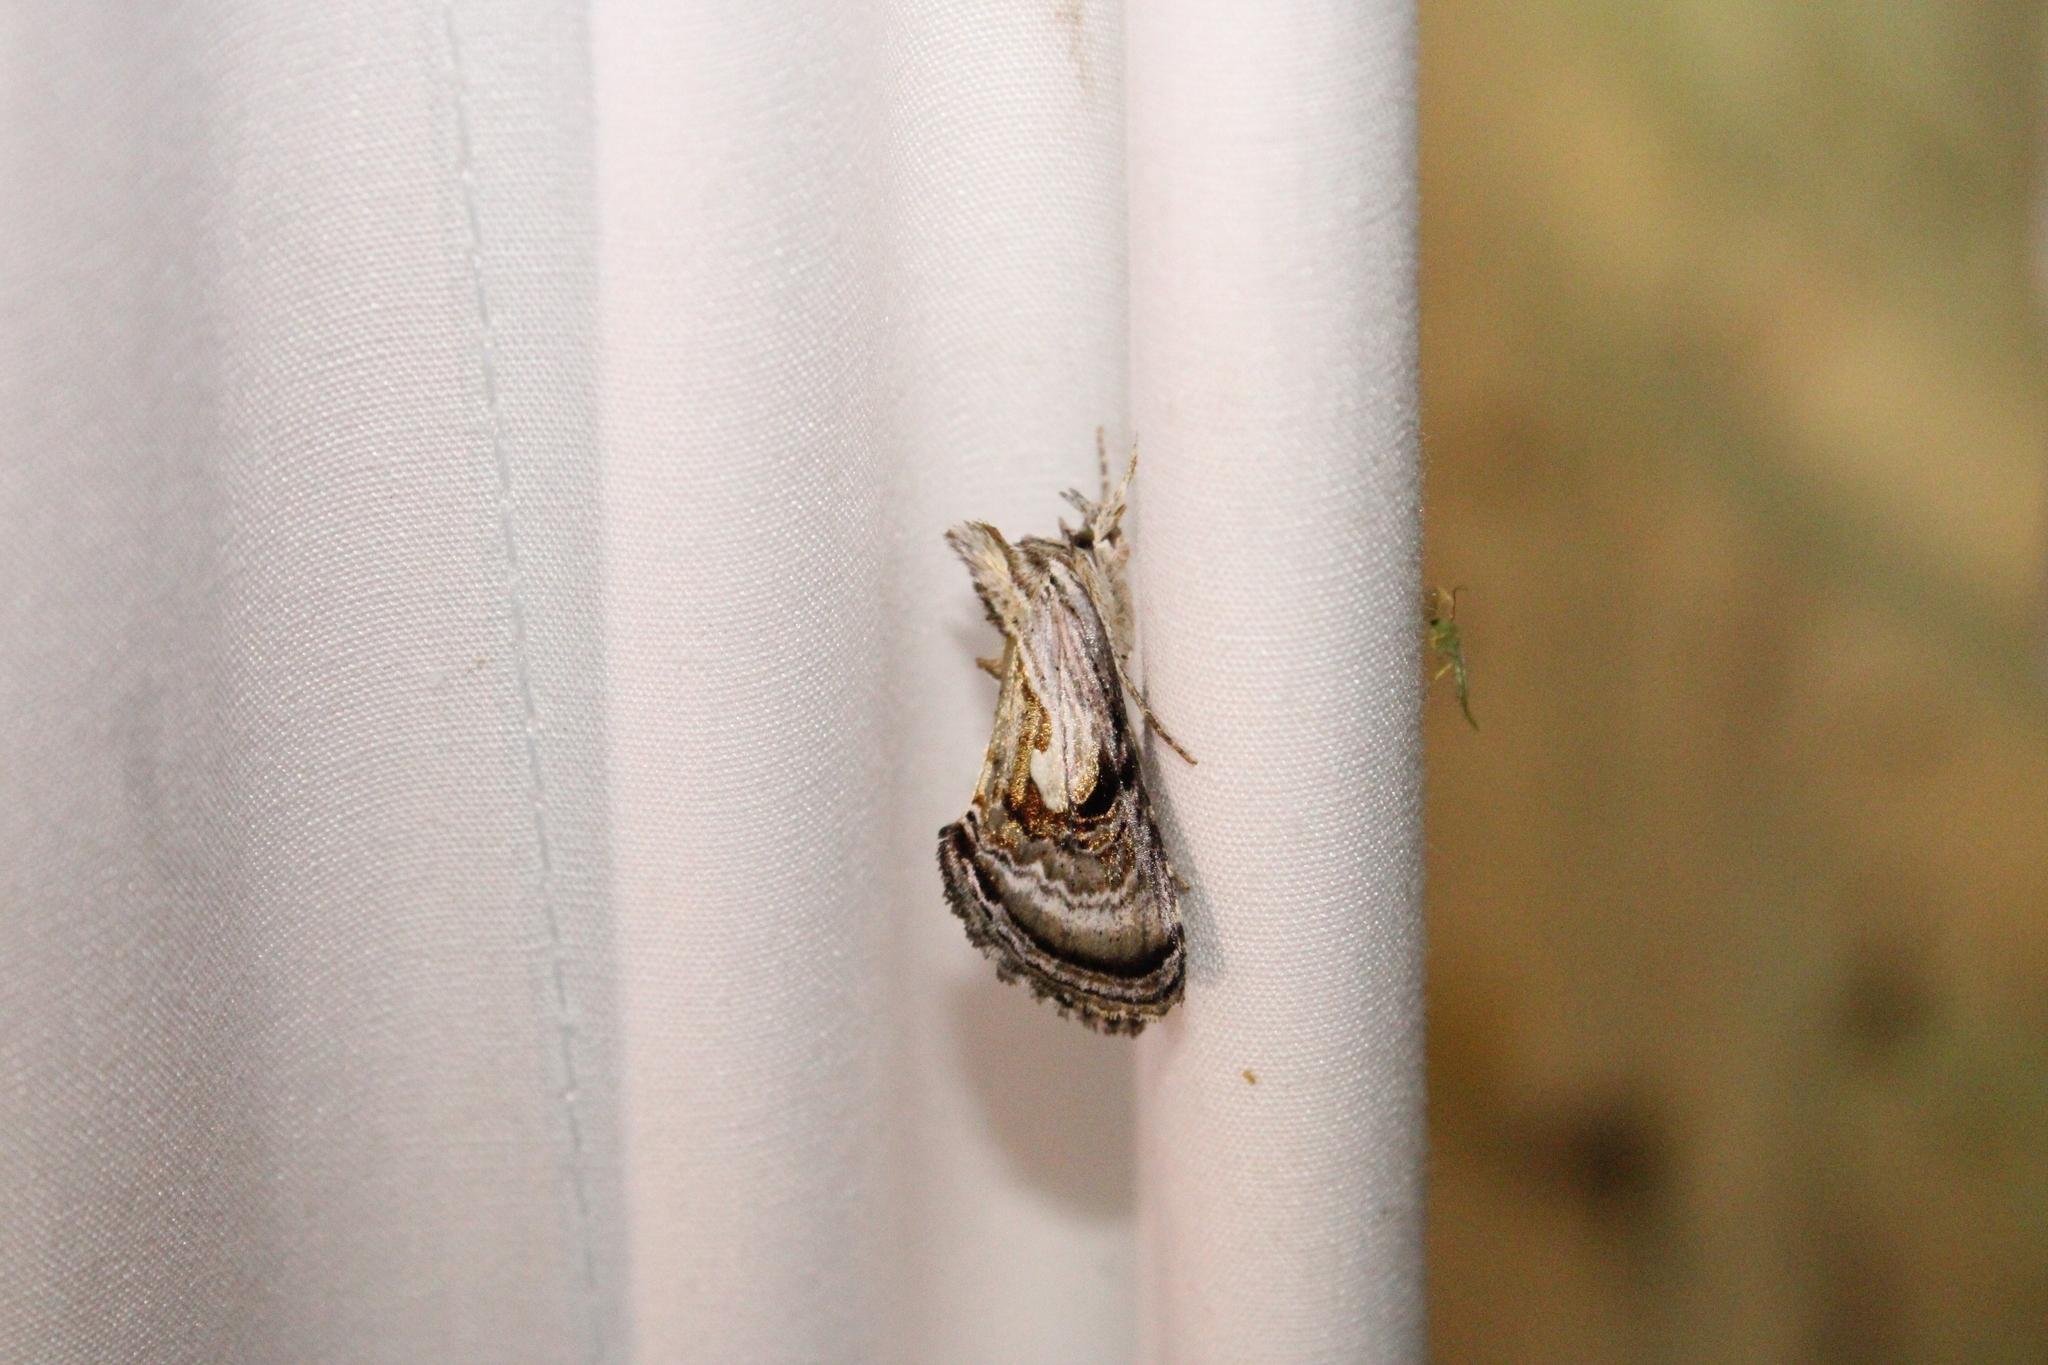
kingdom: Animalia
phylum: Arthropoda
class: Insecta
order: Lepidoptera
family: Noctuidae
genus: Chrysanympha
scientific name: Chrysanympha formosa
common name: Formosa looper moth
